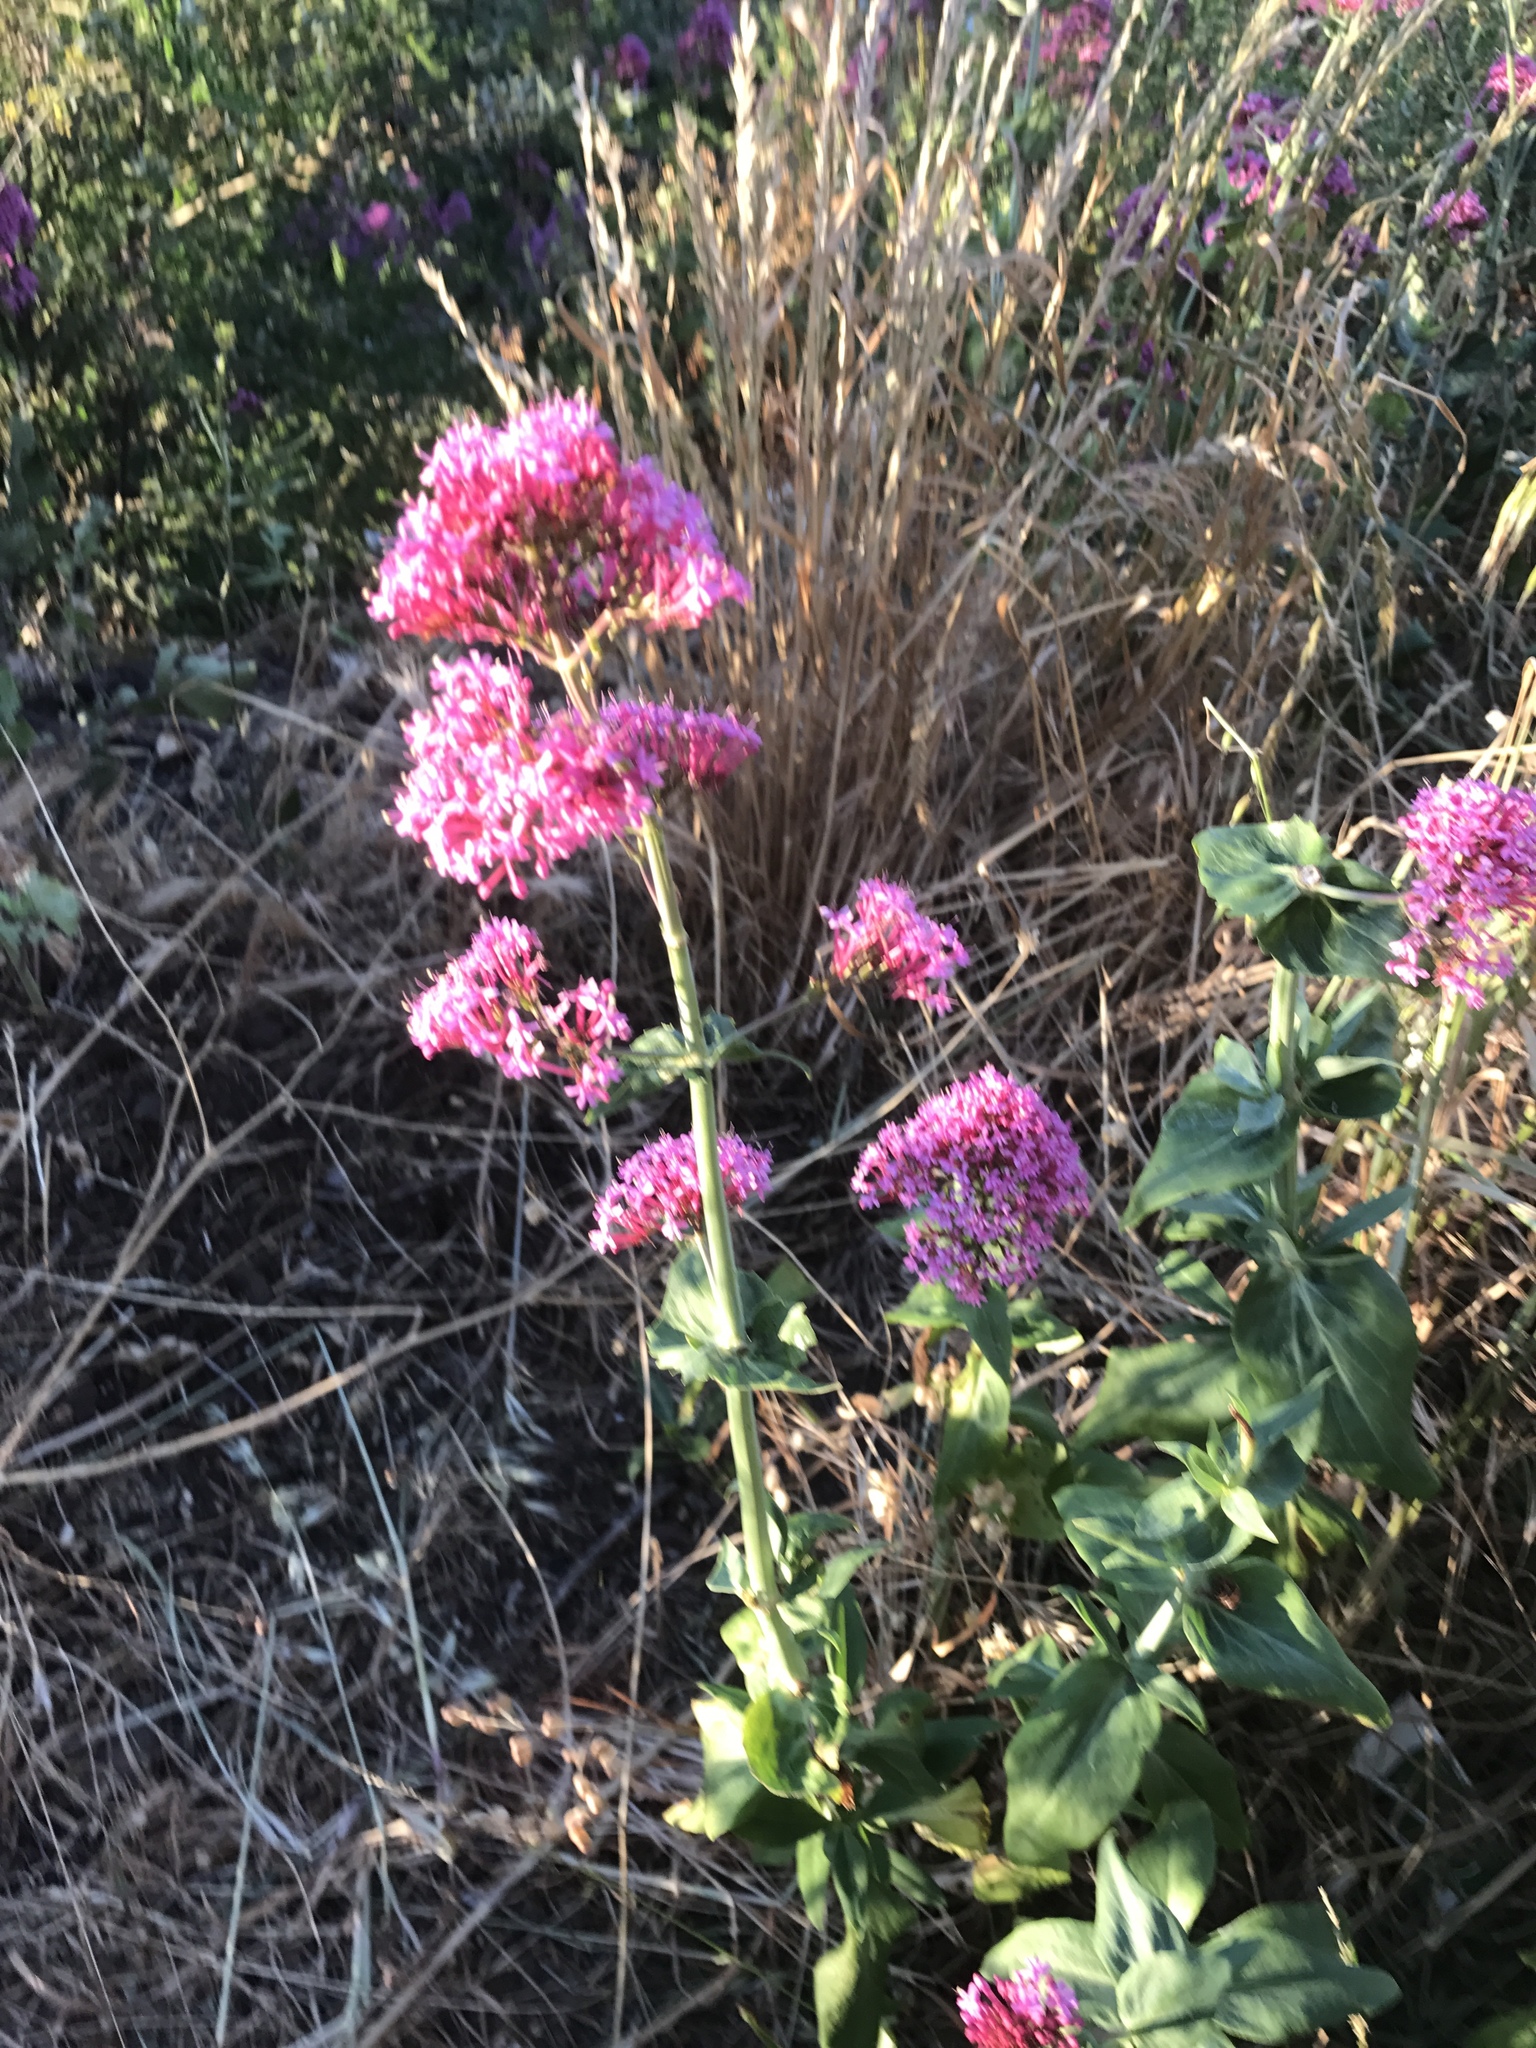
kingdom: Plantae
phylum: Tracheophyta
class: Magnoliopsida
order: Dipsacales
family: Caprifoliaceae
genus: Centranthus
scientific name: Centranthus ruber
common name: Red valerian
